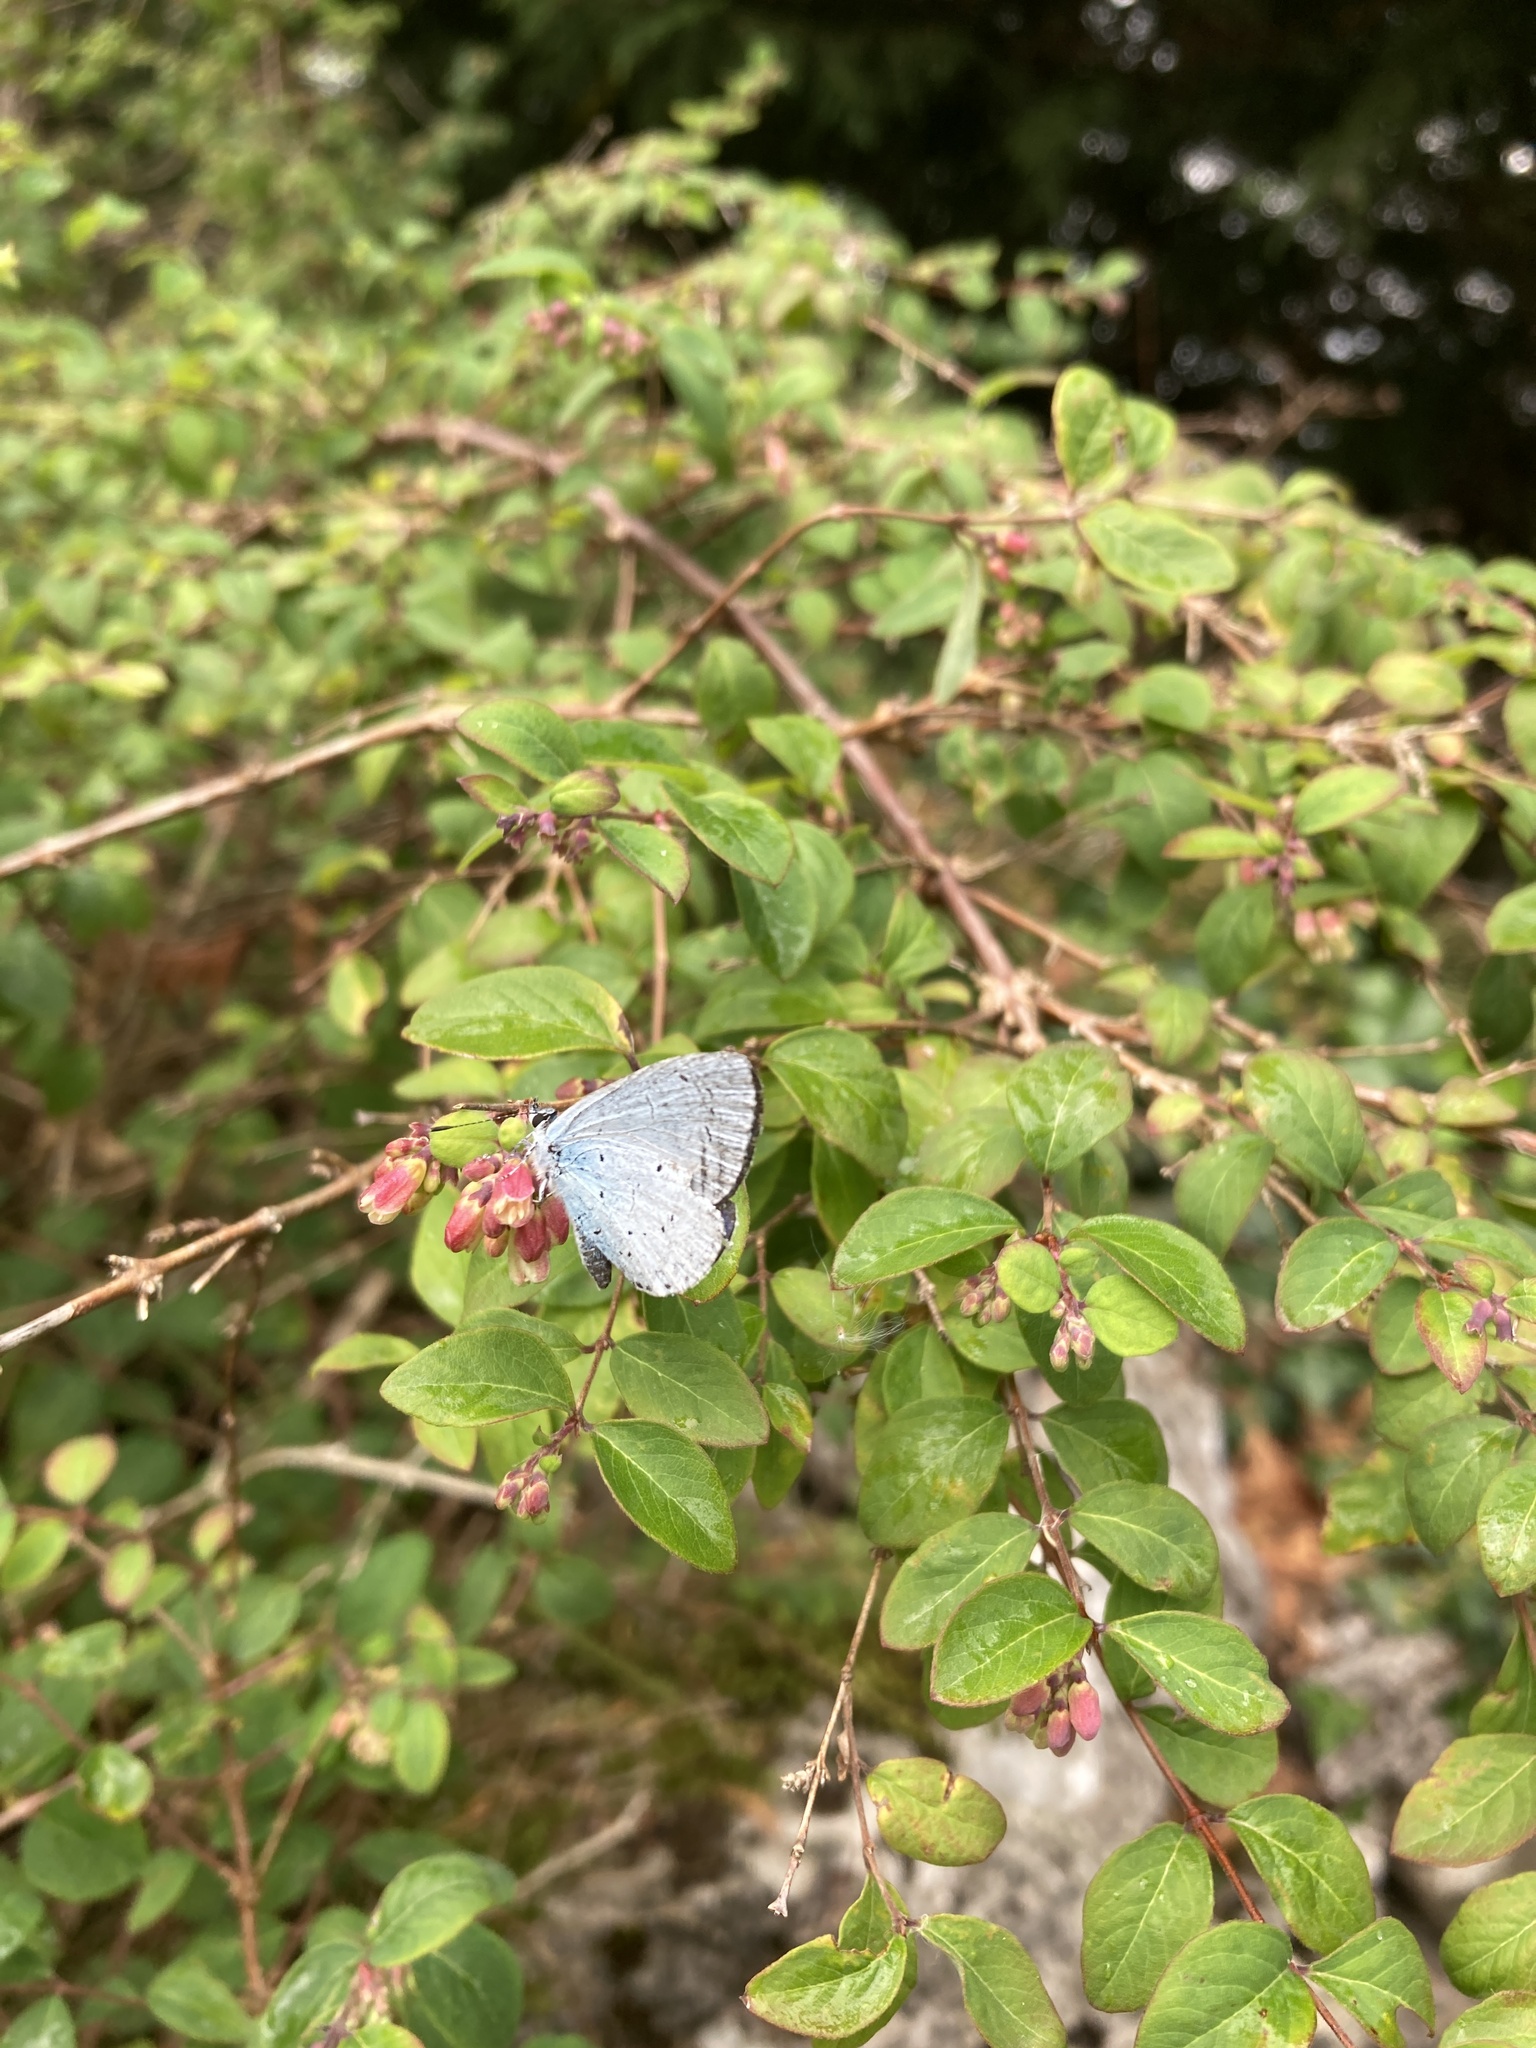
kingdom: Animalia
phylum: Arthropoda
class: Insecta
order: Lepidoptera
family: Lycaenidae
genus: Celastrina
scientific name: Celastrina argiolus
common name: Holly blue
